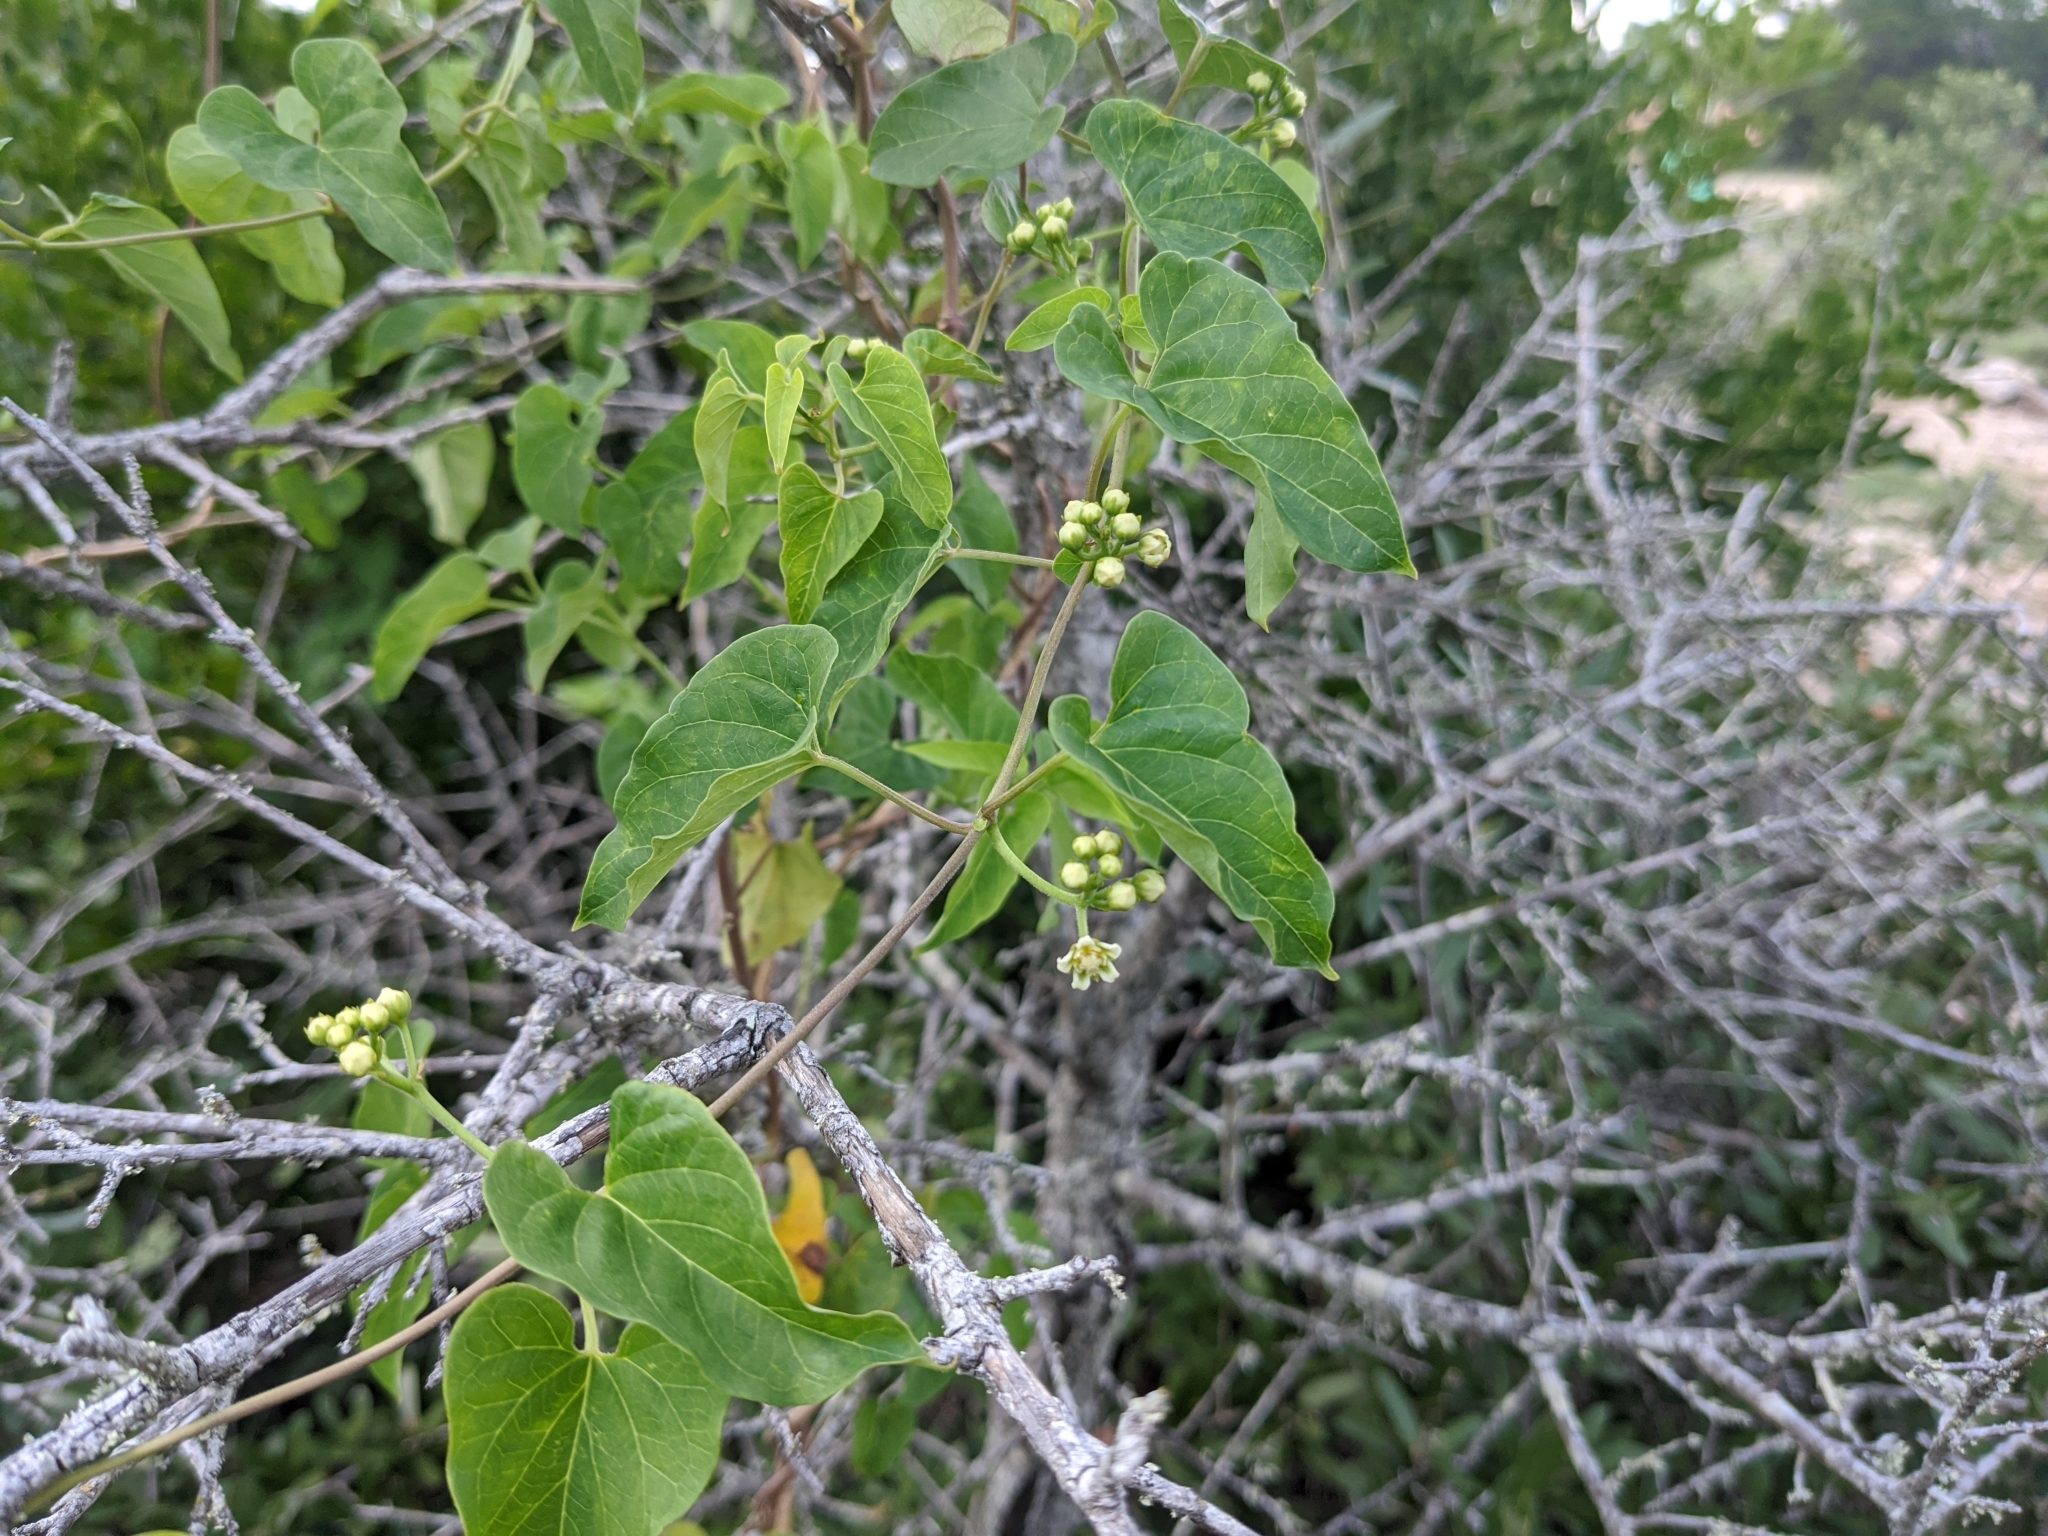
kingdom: Plantae
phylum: Tracheophyta
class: Magnoliopsida
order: Gentianales
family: Apocynaceae
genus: Cynanchum
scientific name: Cynanchum racemosum
